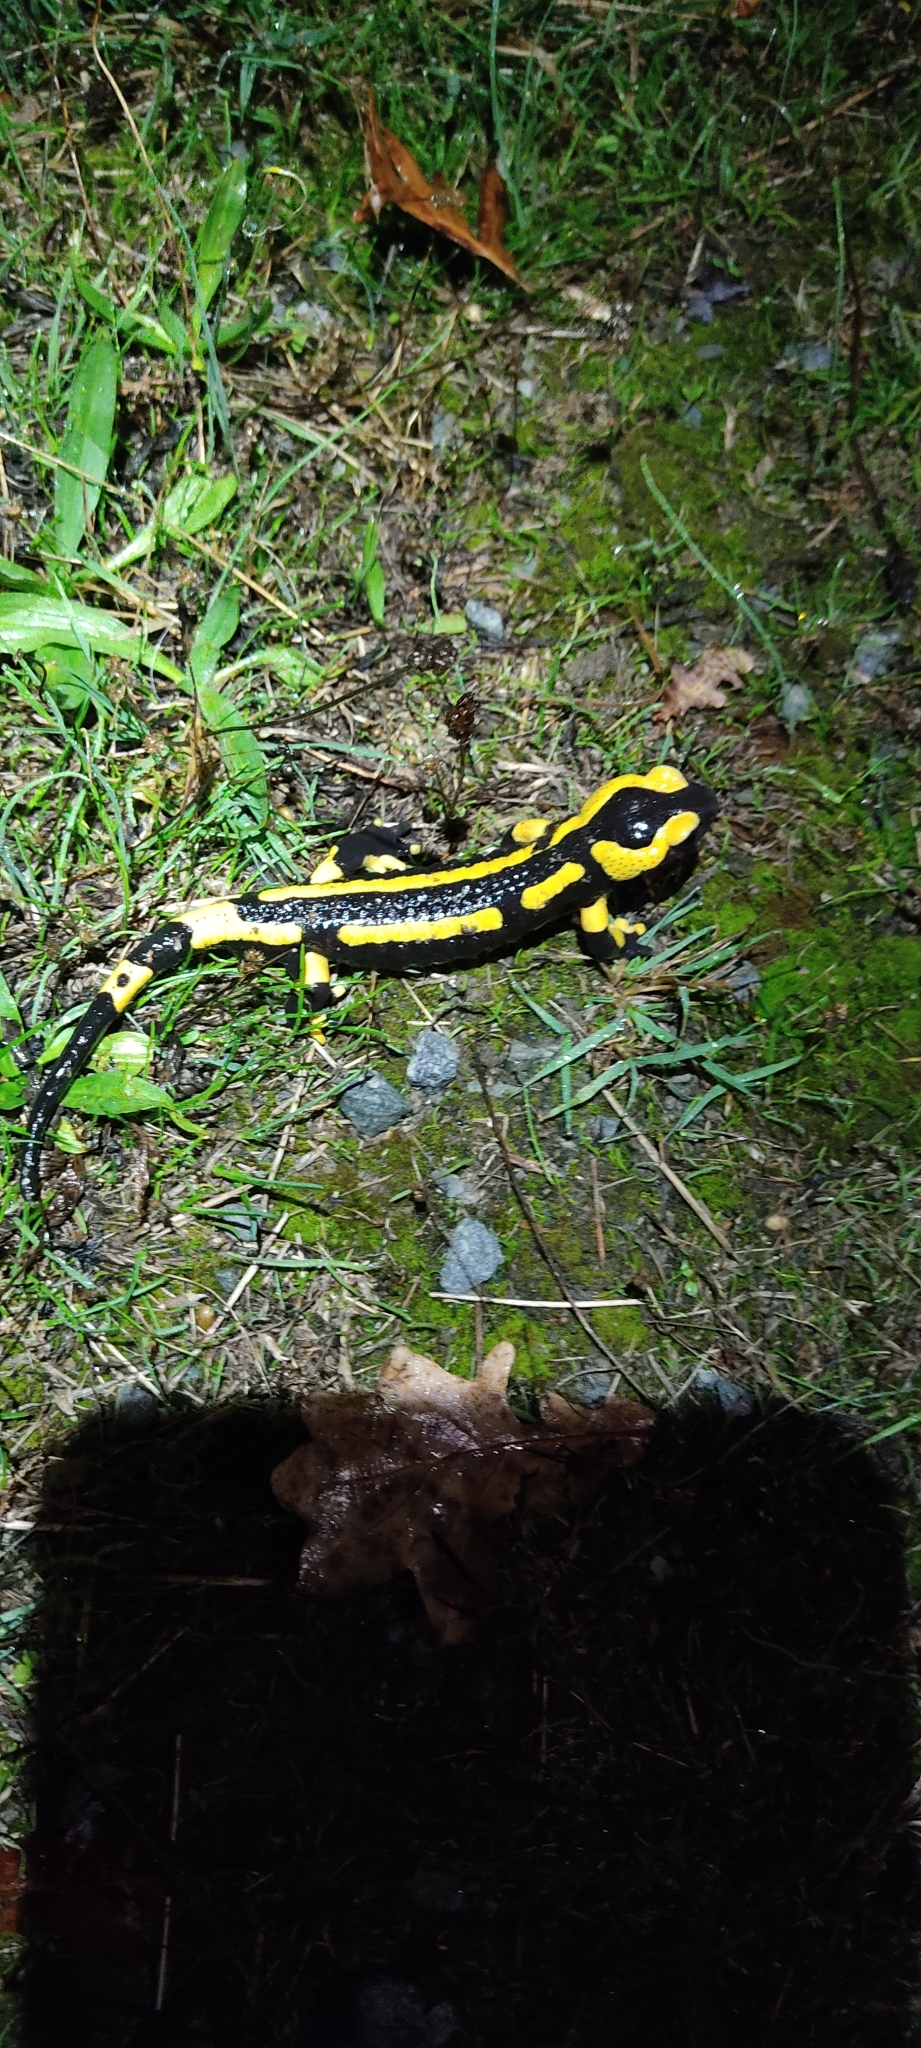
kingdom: Animalia
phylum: Chordata
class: Amphibia
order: Caudata
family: Salamandridae
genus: Salamandra
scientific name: Salamandra salamandra
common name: Fire salamander
